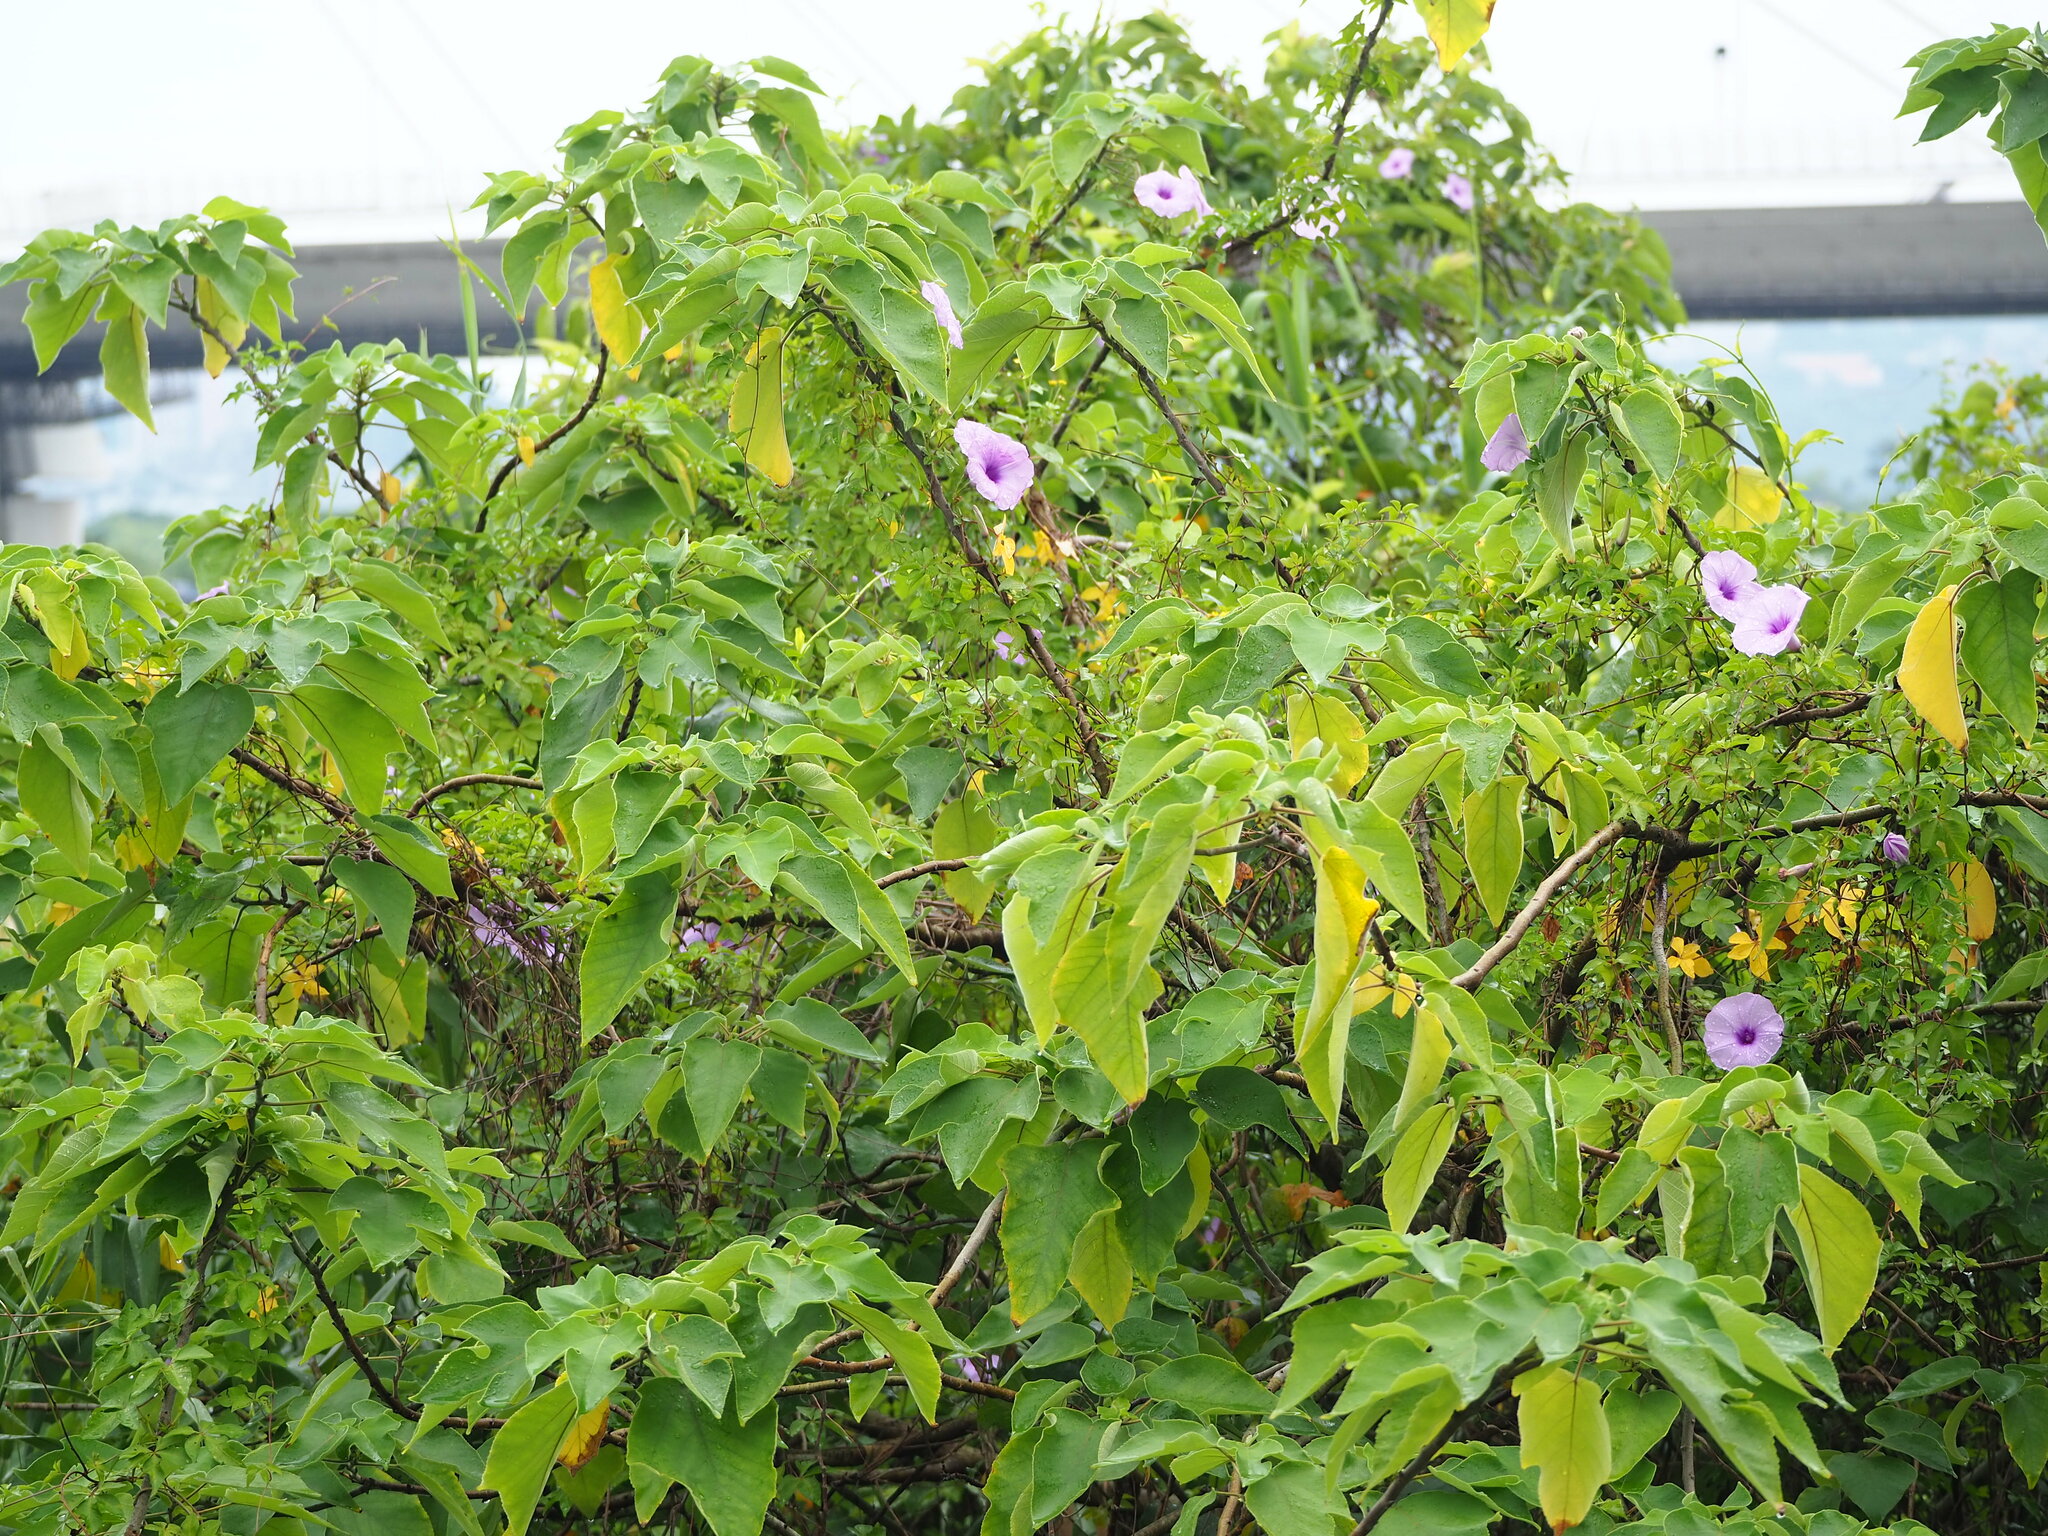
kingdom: Plantae
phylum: Tracheophyta
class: Magnoliopsida
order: Rosales
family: Moraceae
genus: Broussonetia
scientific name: Broussonetia papyrifera
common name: Paper mulberry
